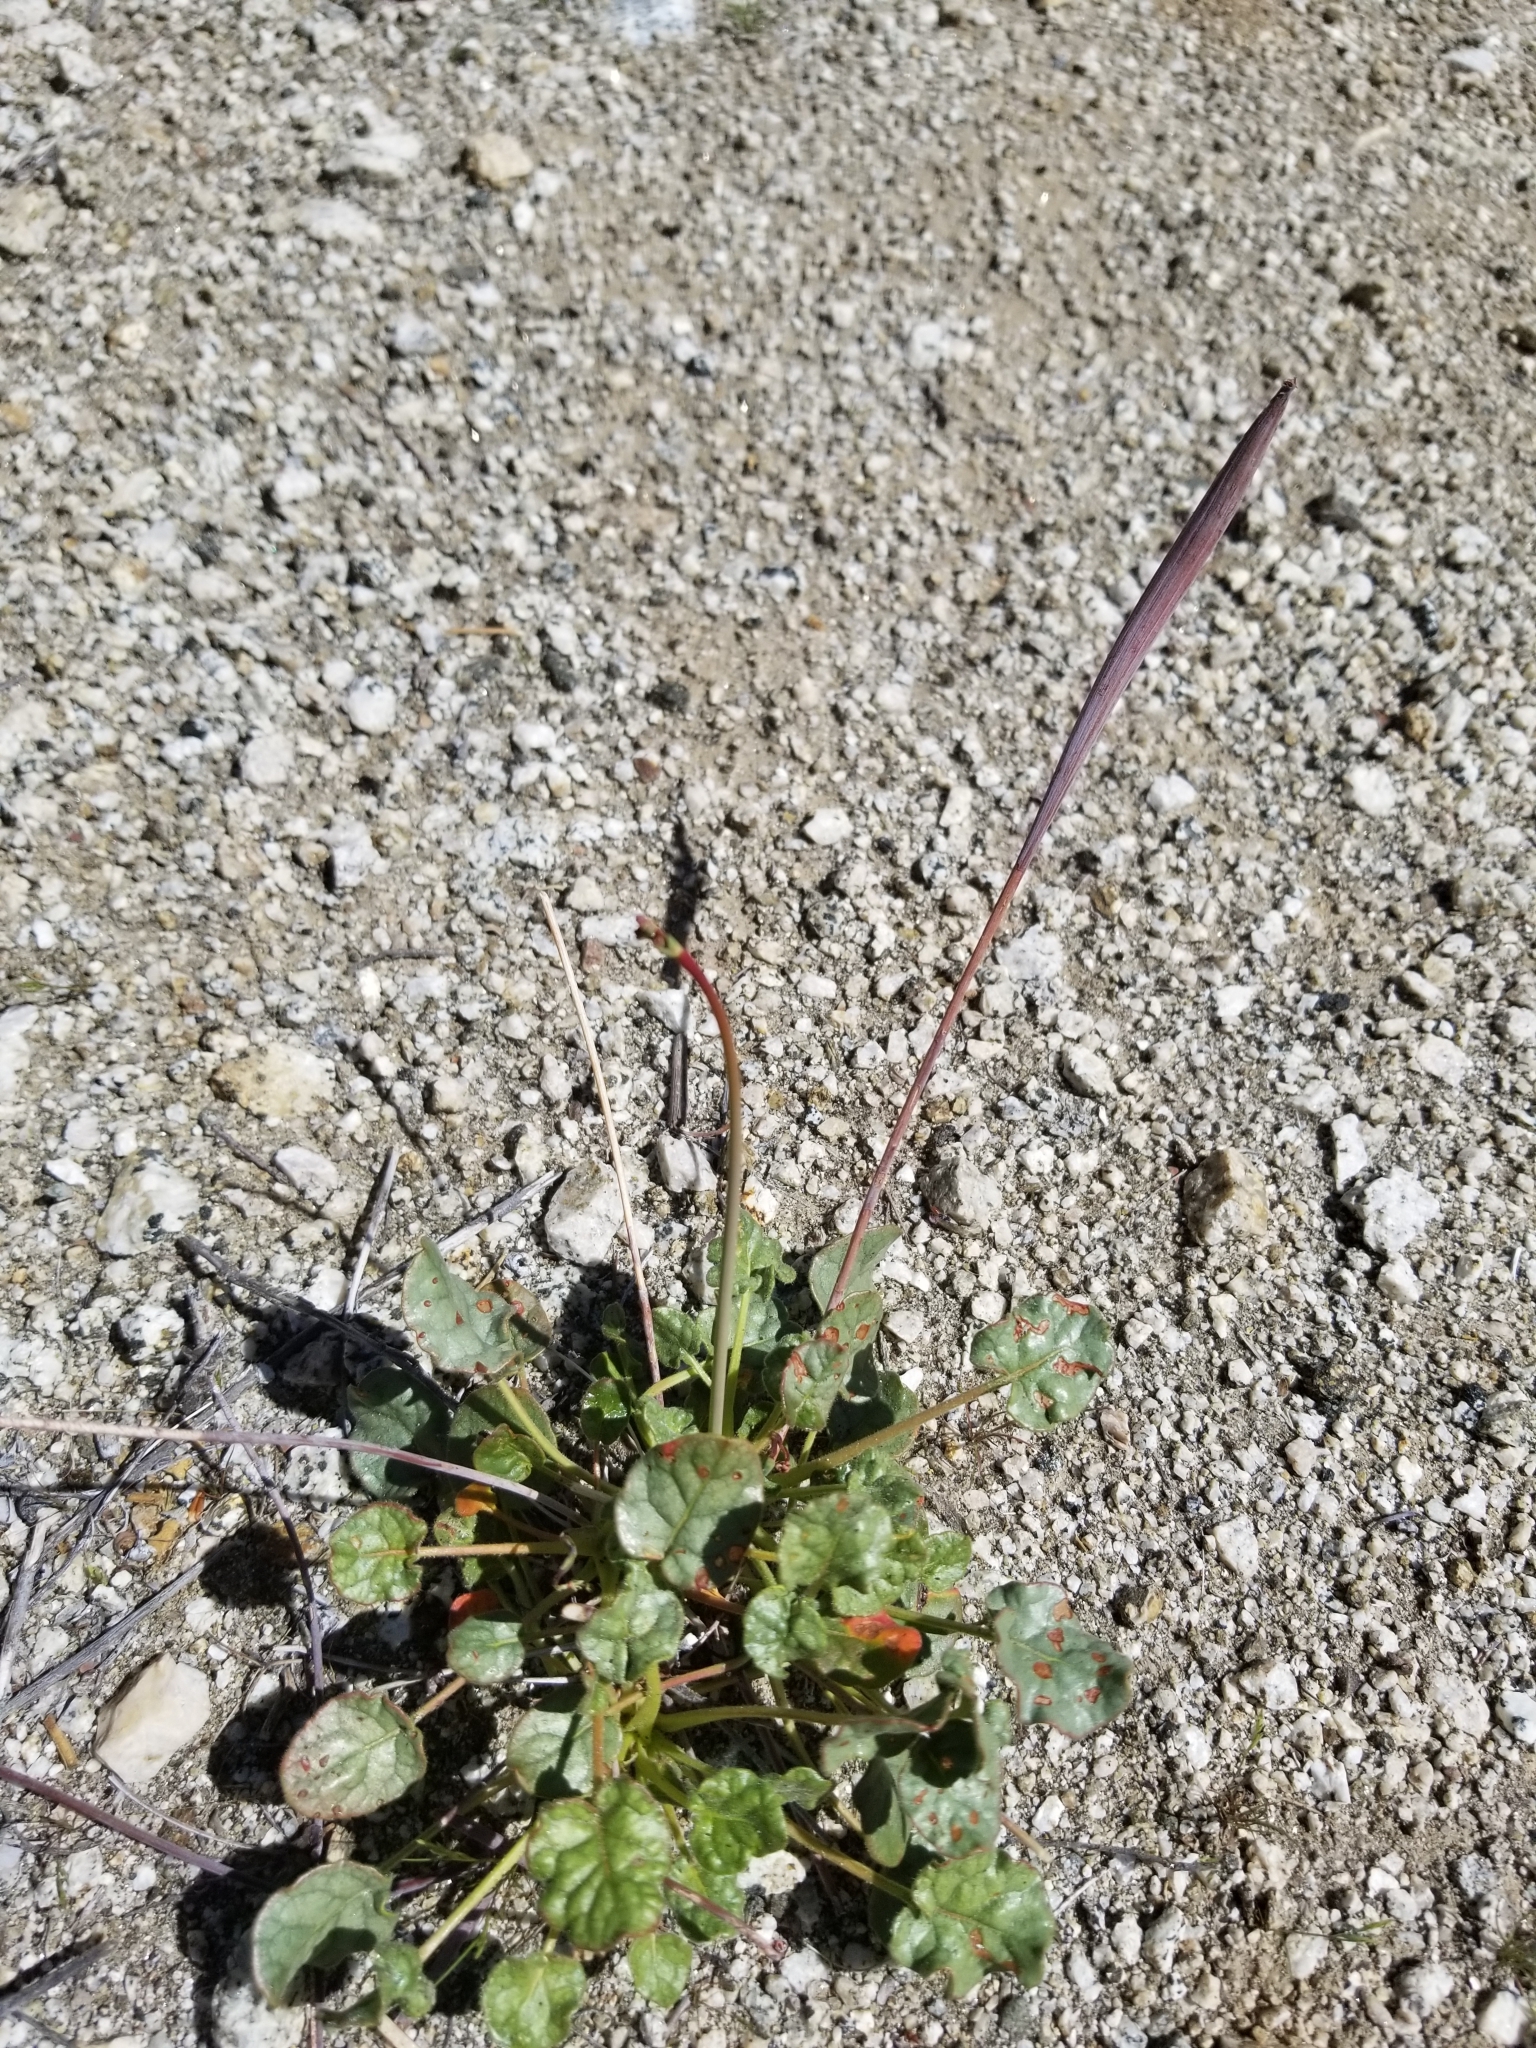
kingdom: Plantae
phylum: Tracheophyta
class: Magnoliopsida
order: Caryophyllales
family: Polygonaceae
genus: Eriogonum
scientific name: Eriogonum inflatum
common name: Desert trumpet
